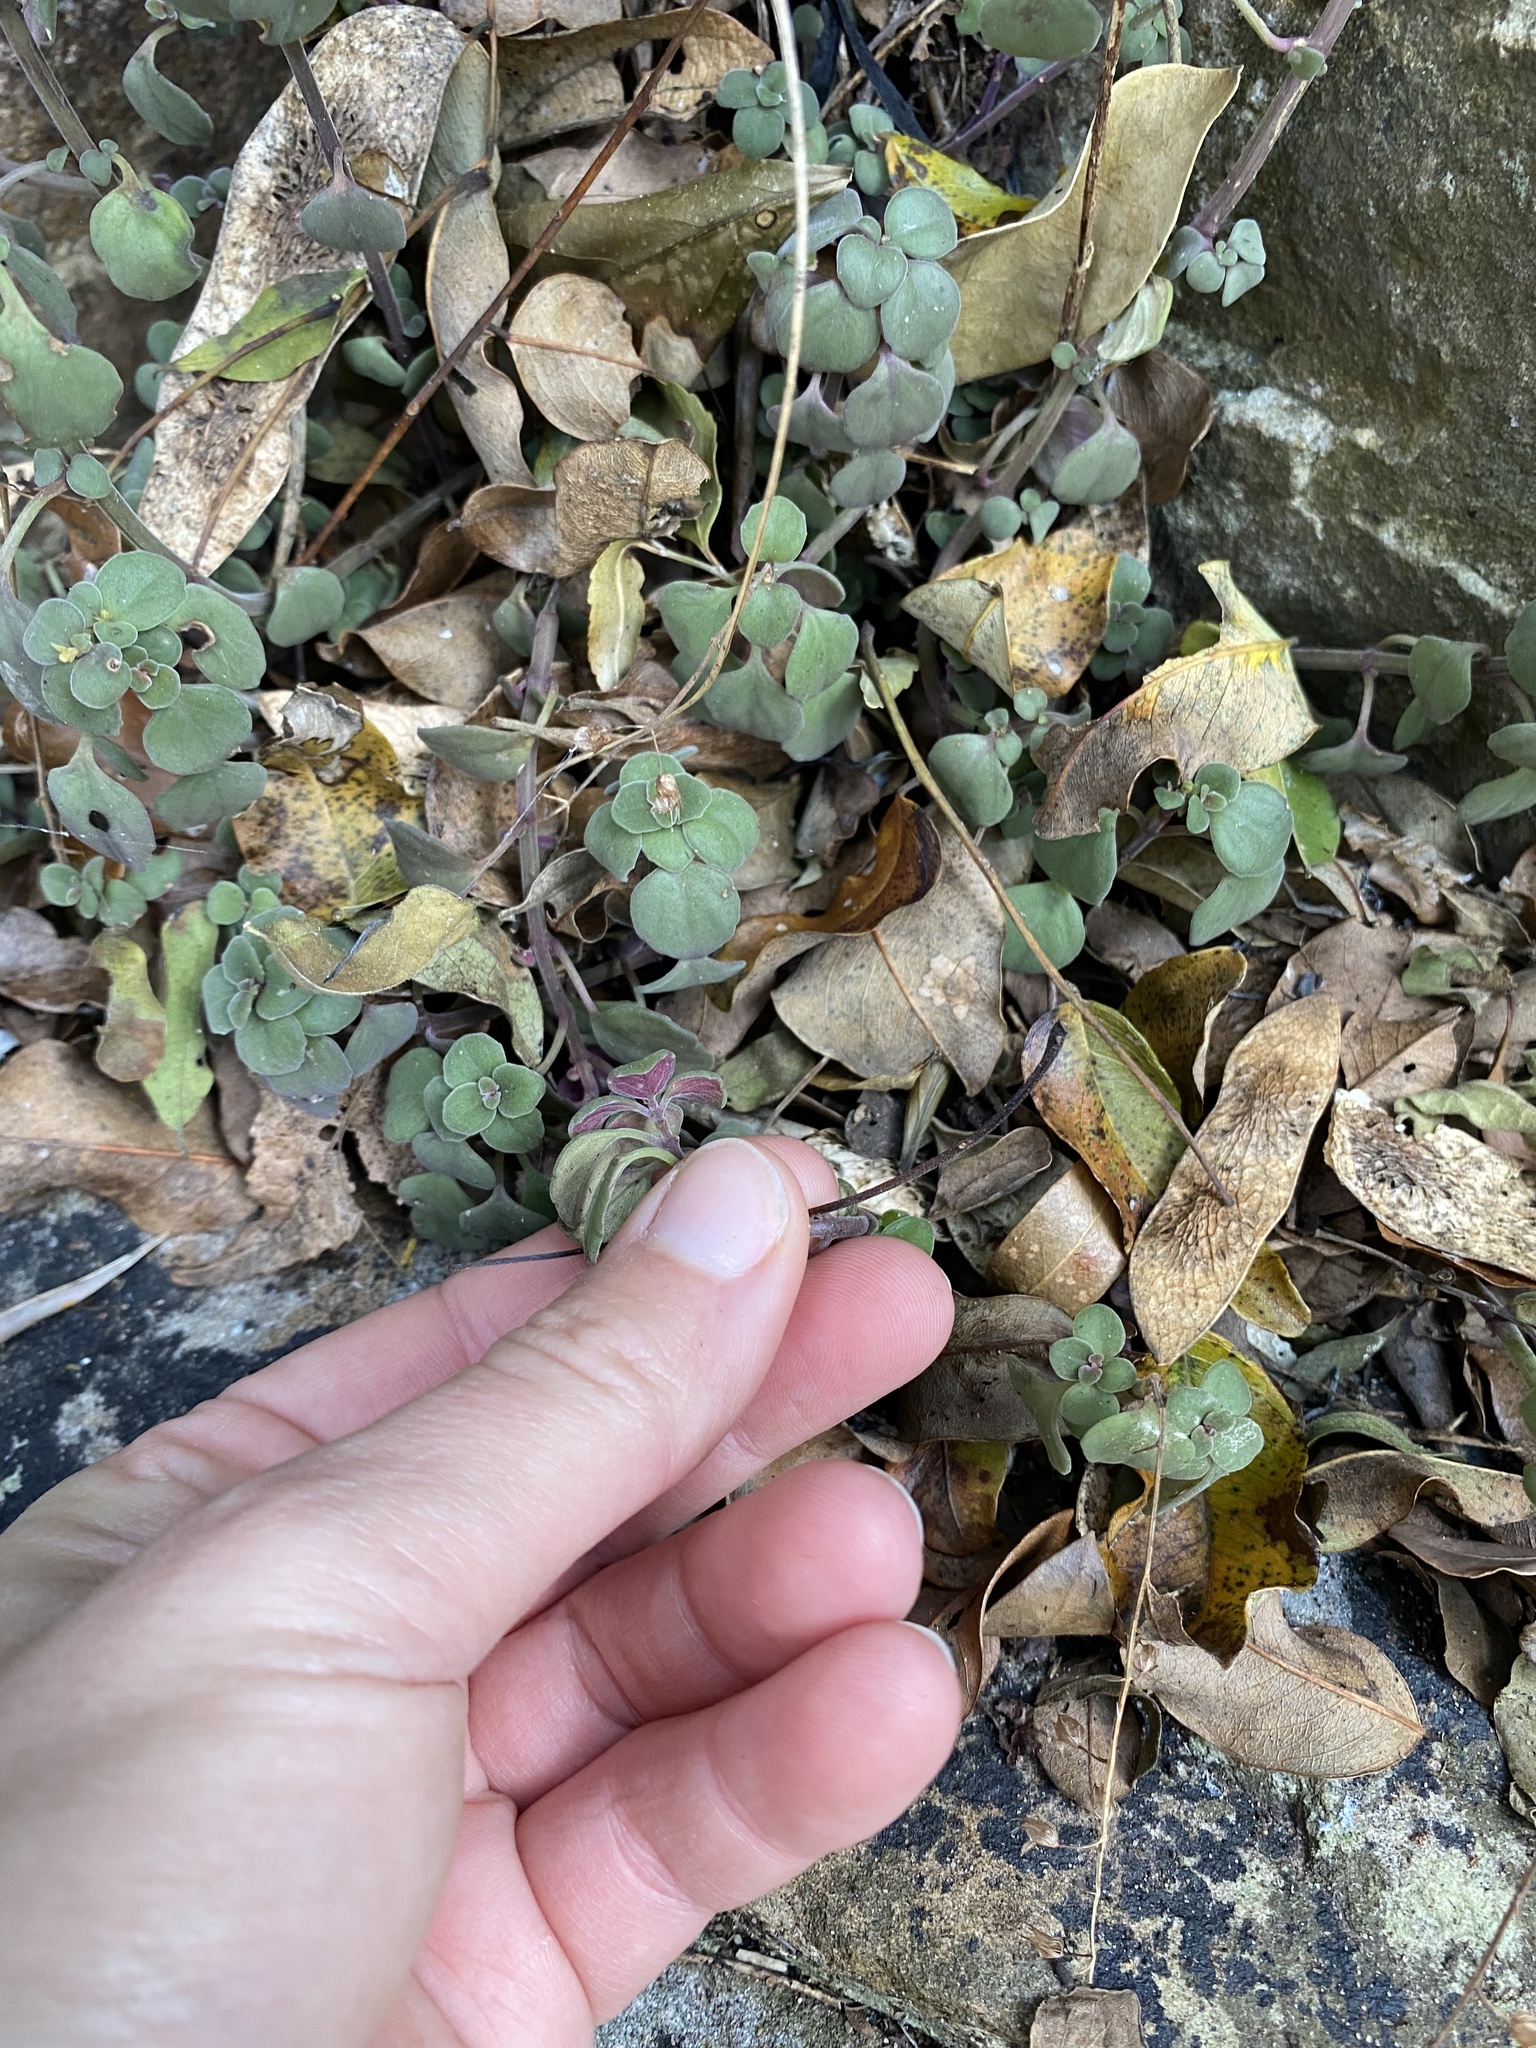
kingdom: Plantae
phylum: Tracheophyta
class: Magnoliopsida
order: Lamiales
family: Lamiaceae
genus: Plectranthus
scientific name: Plectranthus purpuratus
